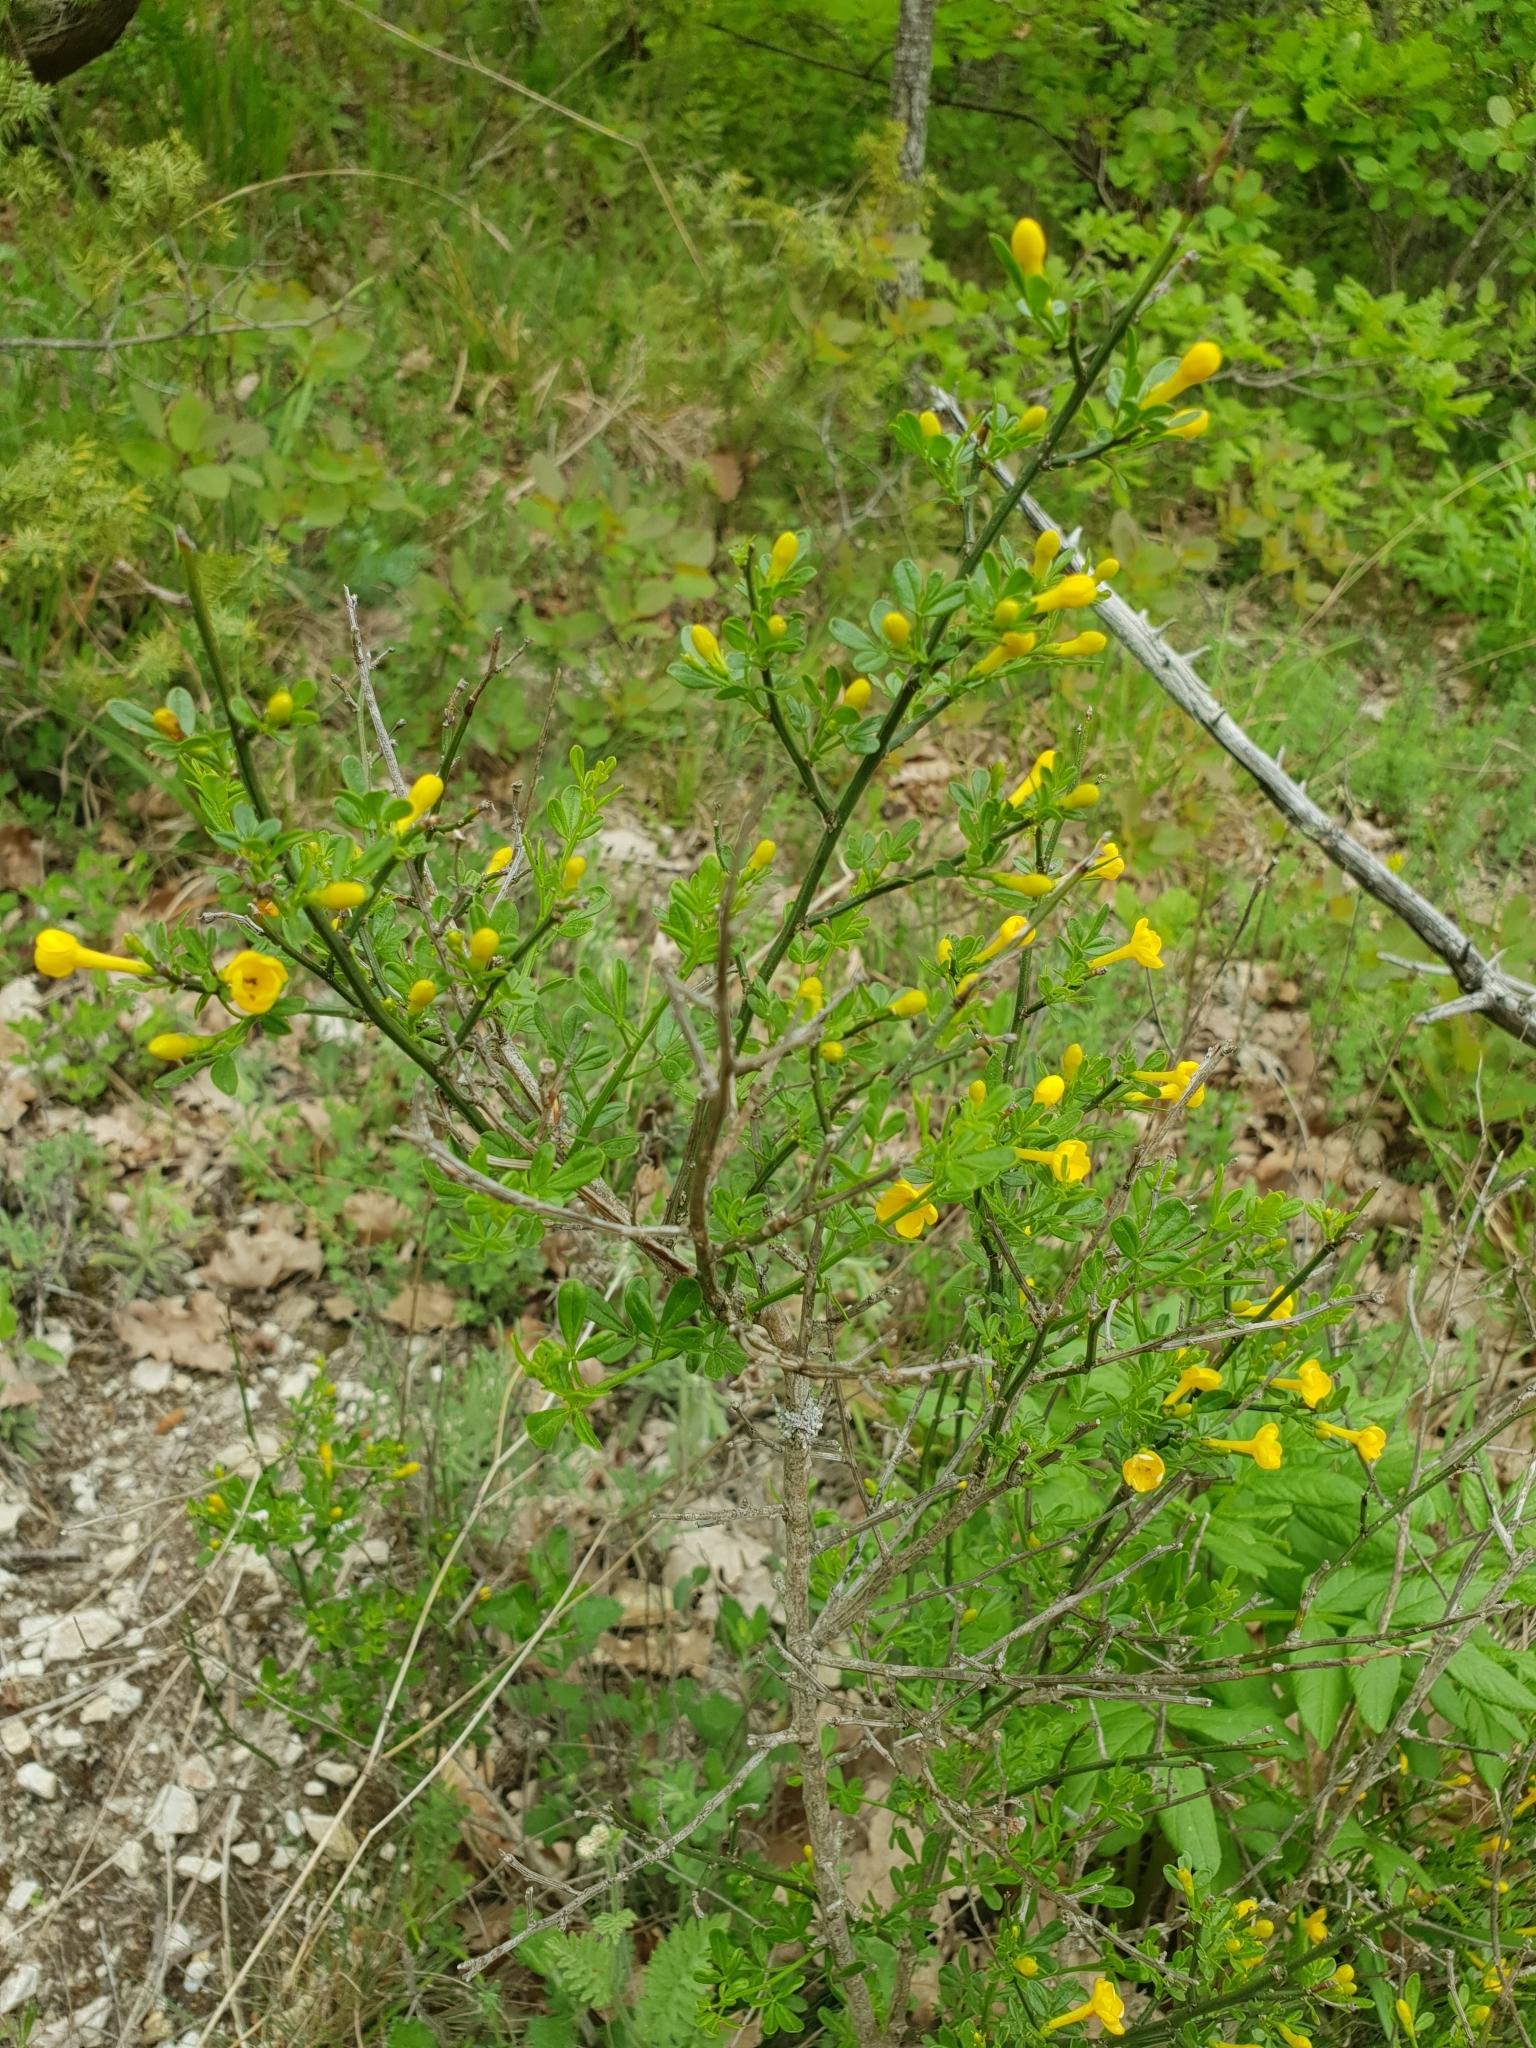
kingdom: Plantae
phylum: Tracheophyta
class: Magnoliopsida
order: Lamiales
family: Oleaceae
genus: Chrysojasminum
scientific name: Chrysojasminum fruticans
